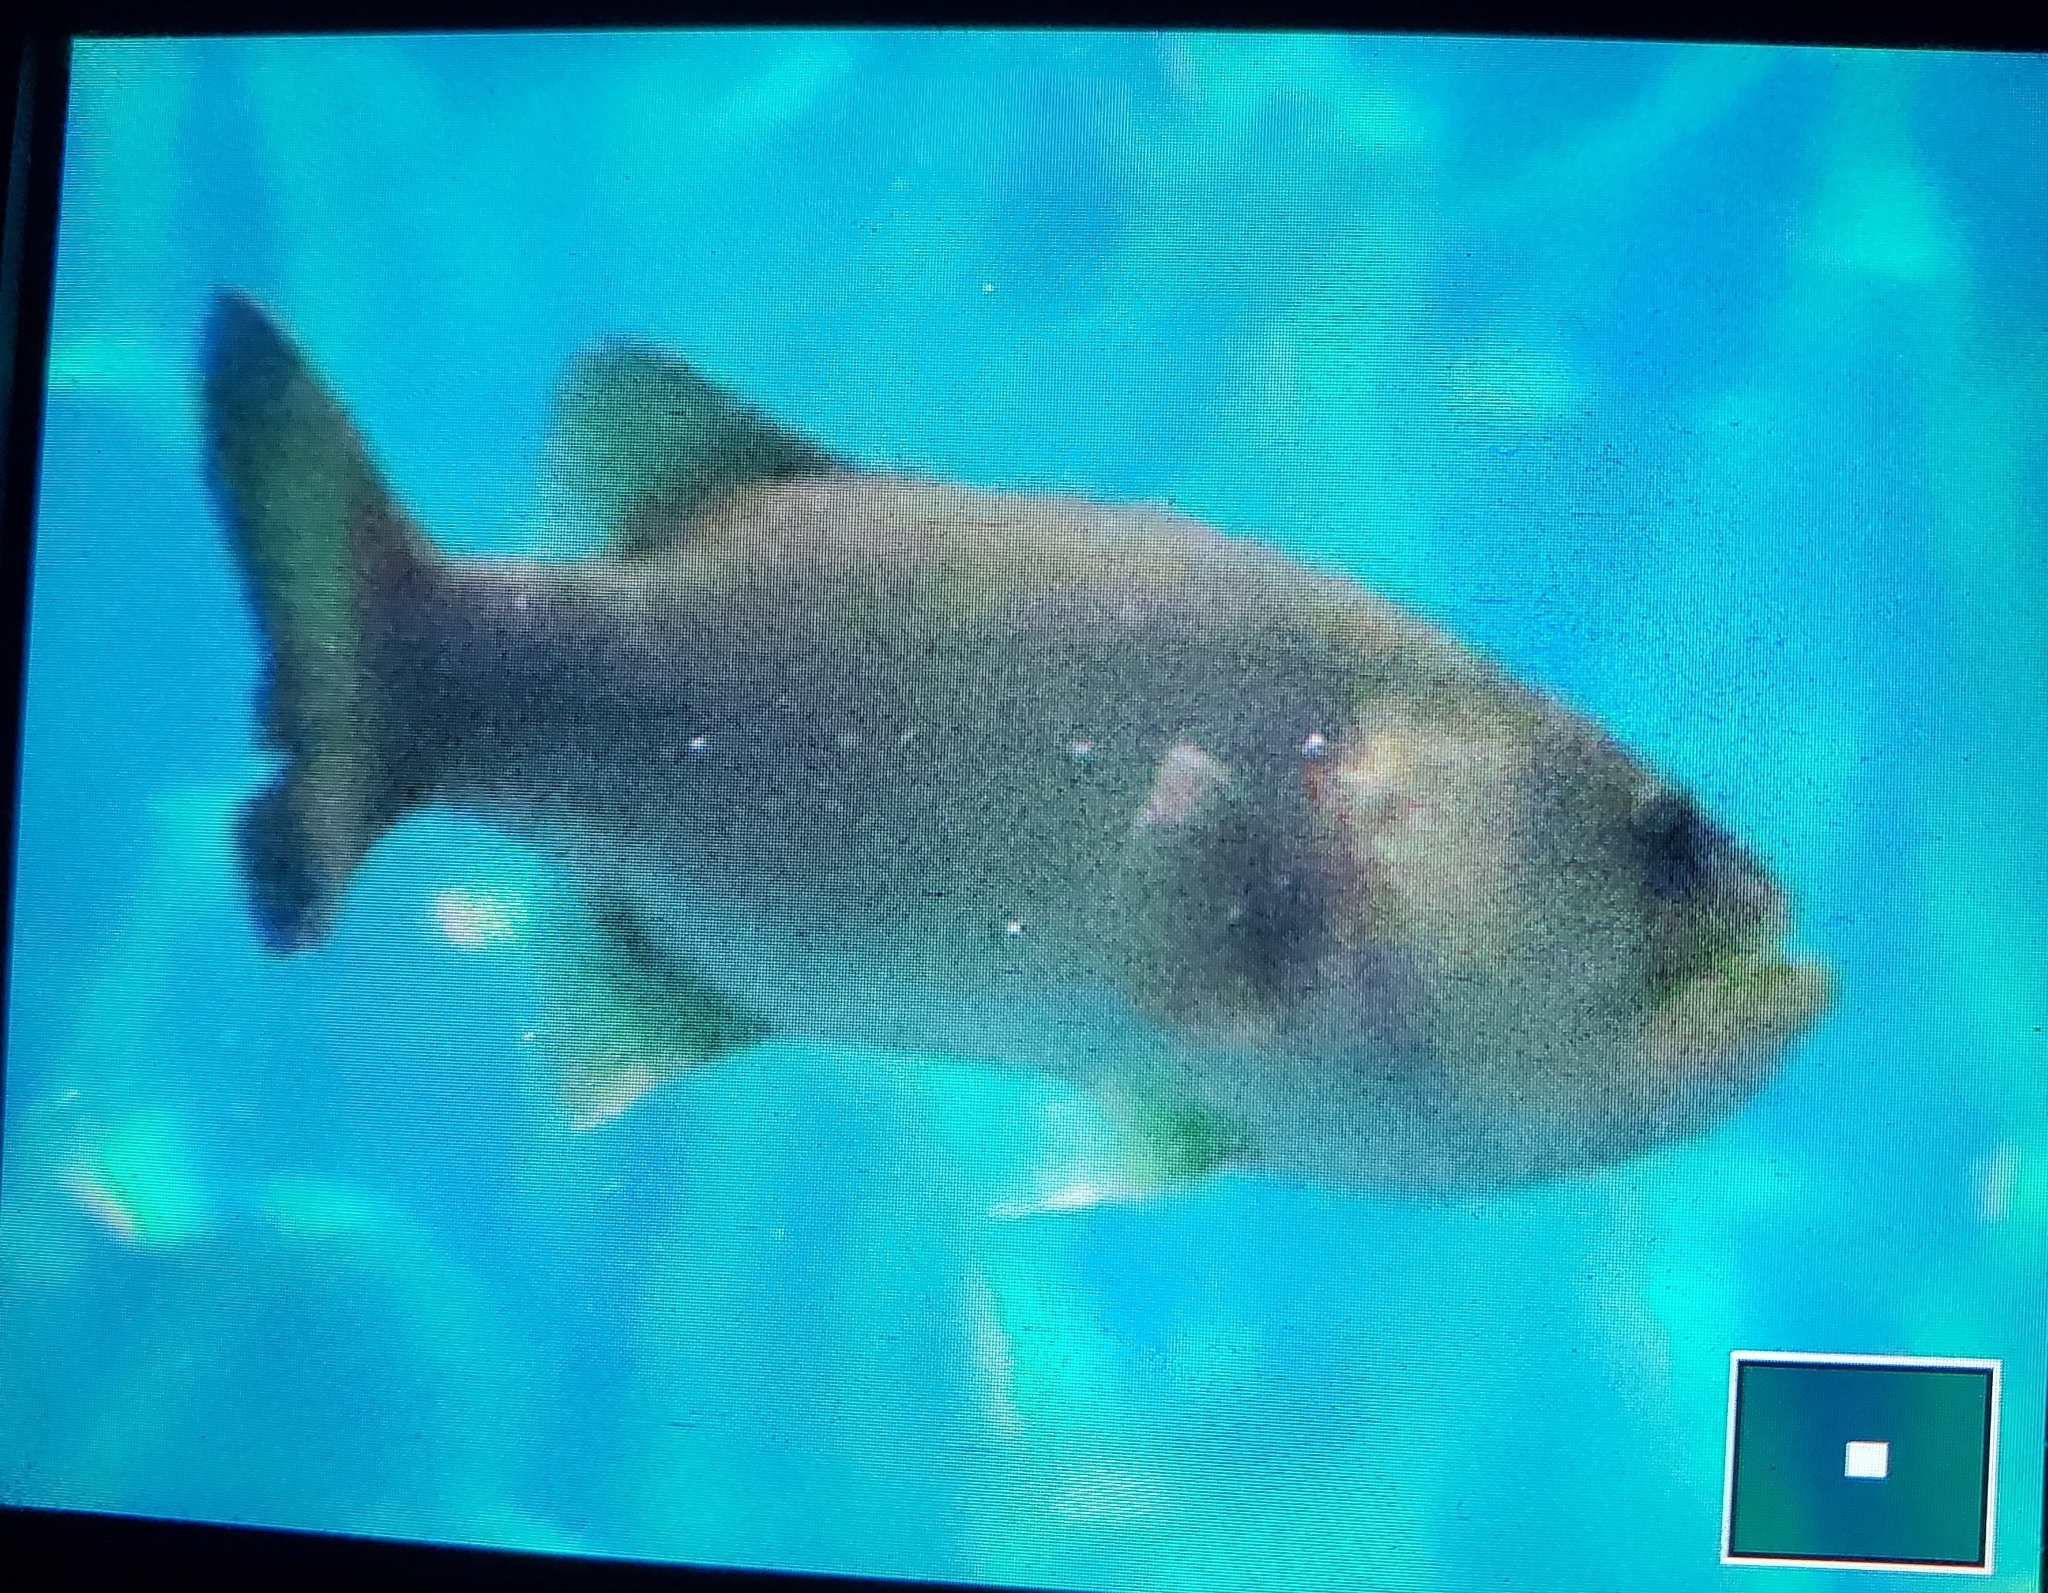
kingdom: Animalia
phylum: Chordata
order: Perciformes
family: Centrarchidae
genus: Micropterus
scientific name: Micropterus salmoides
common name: Largemouth bass
